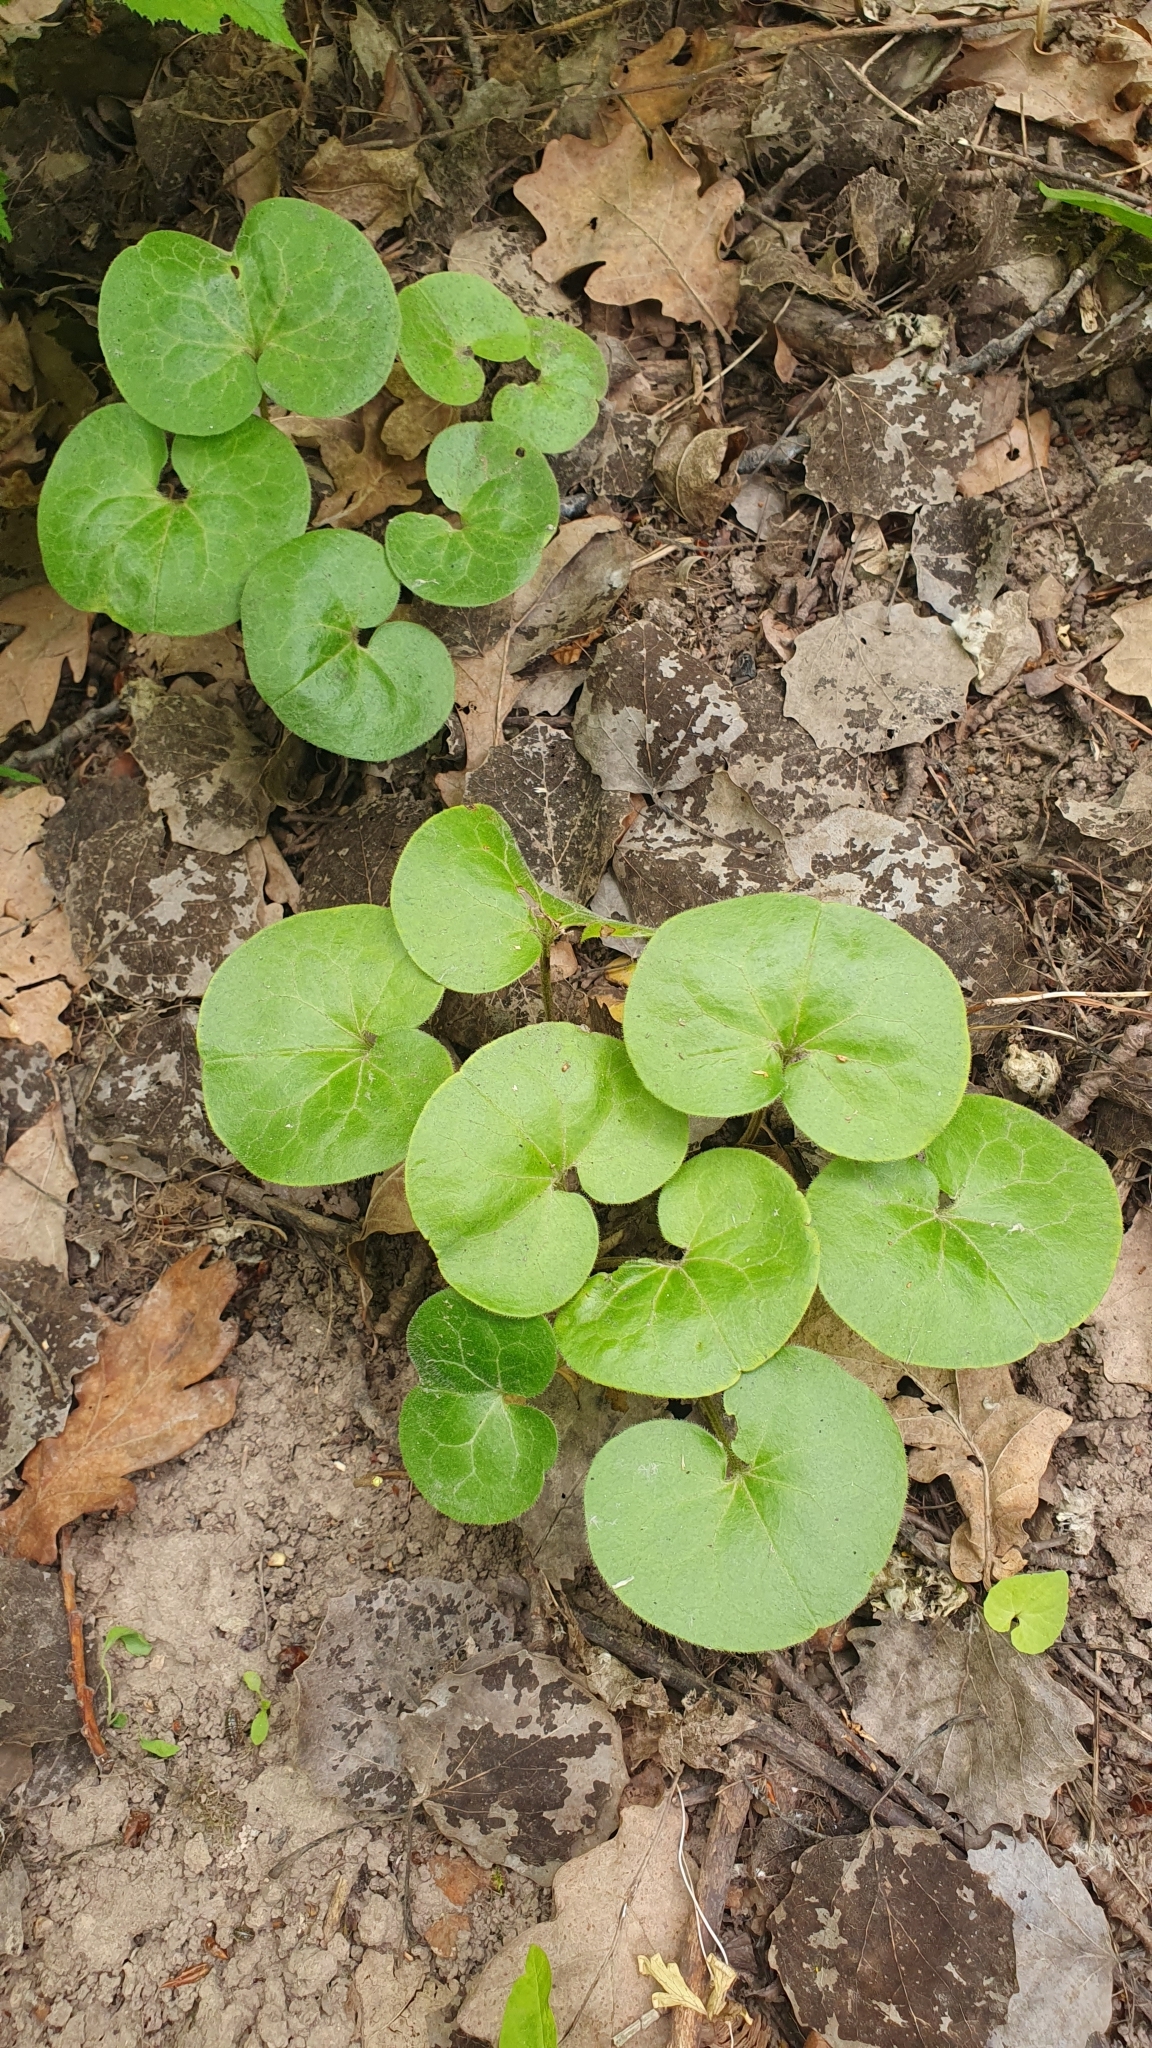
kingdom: Plantae
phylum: Tracheophyta
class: Magnoliopsida
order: Piperales
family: Aristolochiaceae
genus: Asarum
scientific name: Asarum europaeum
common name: Asarabacca
